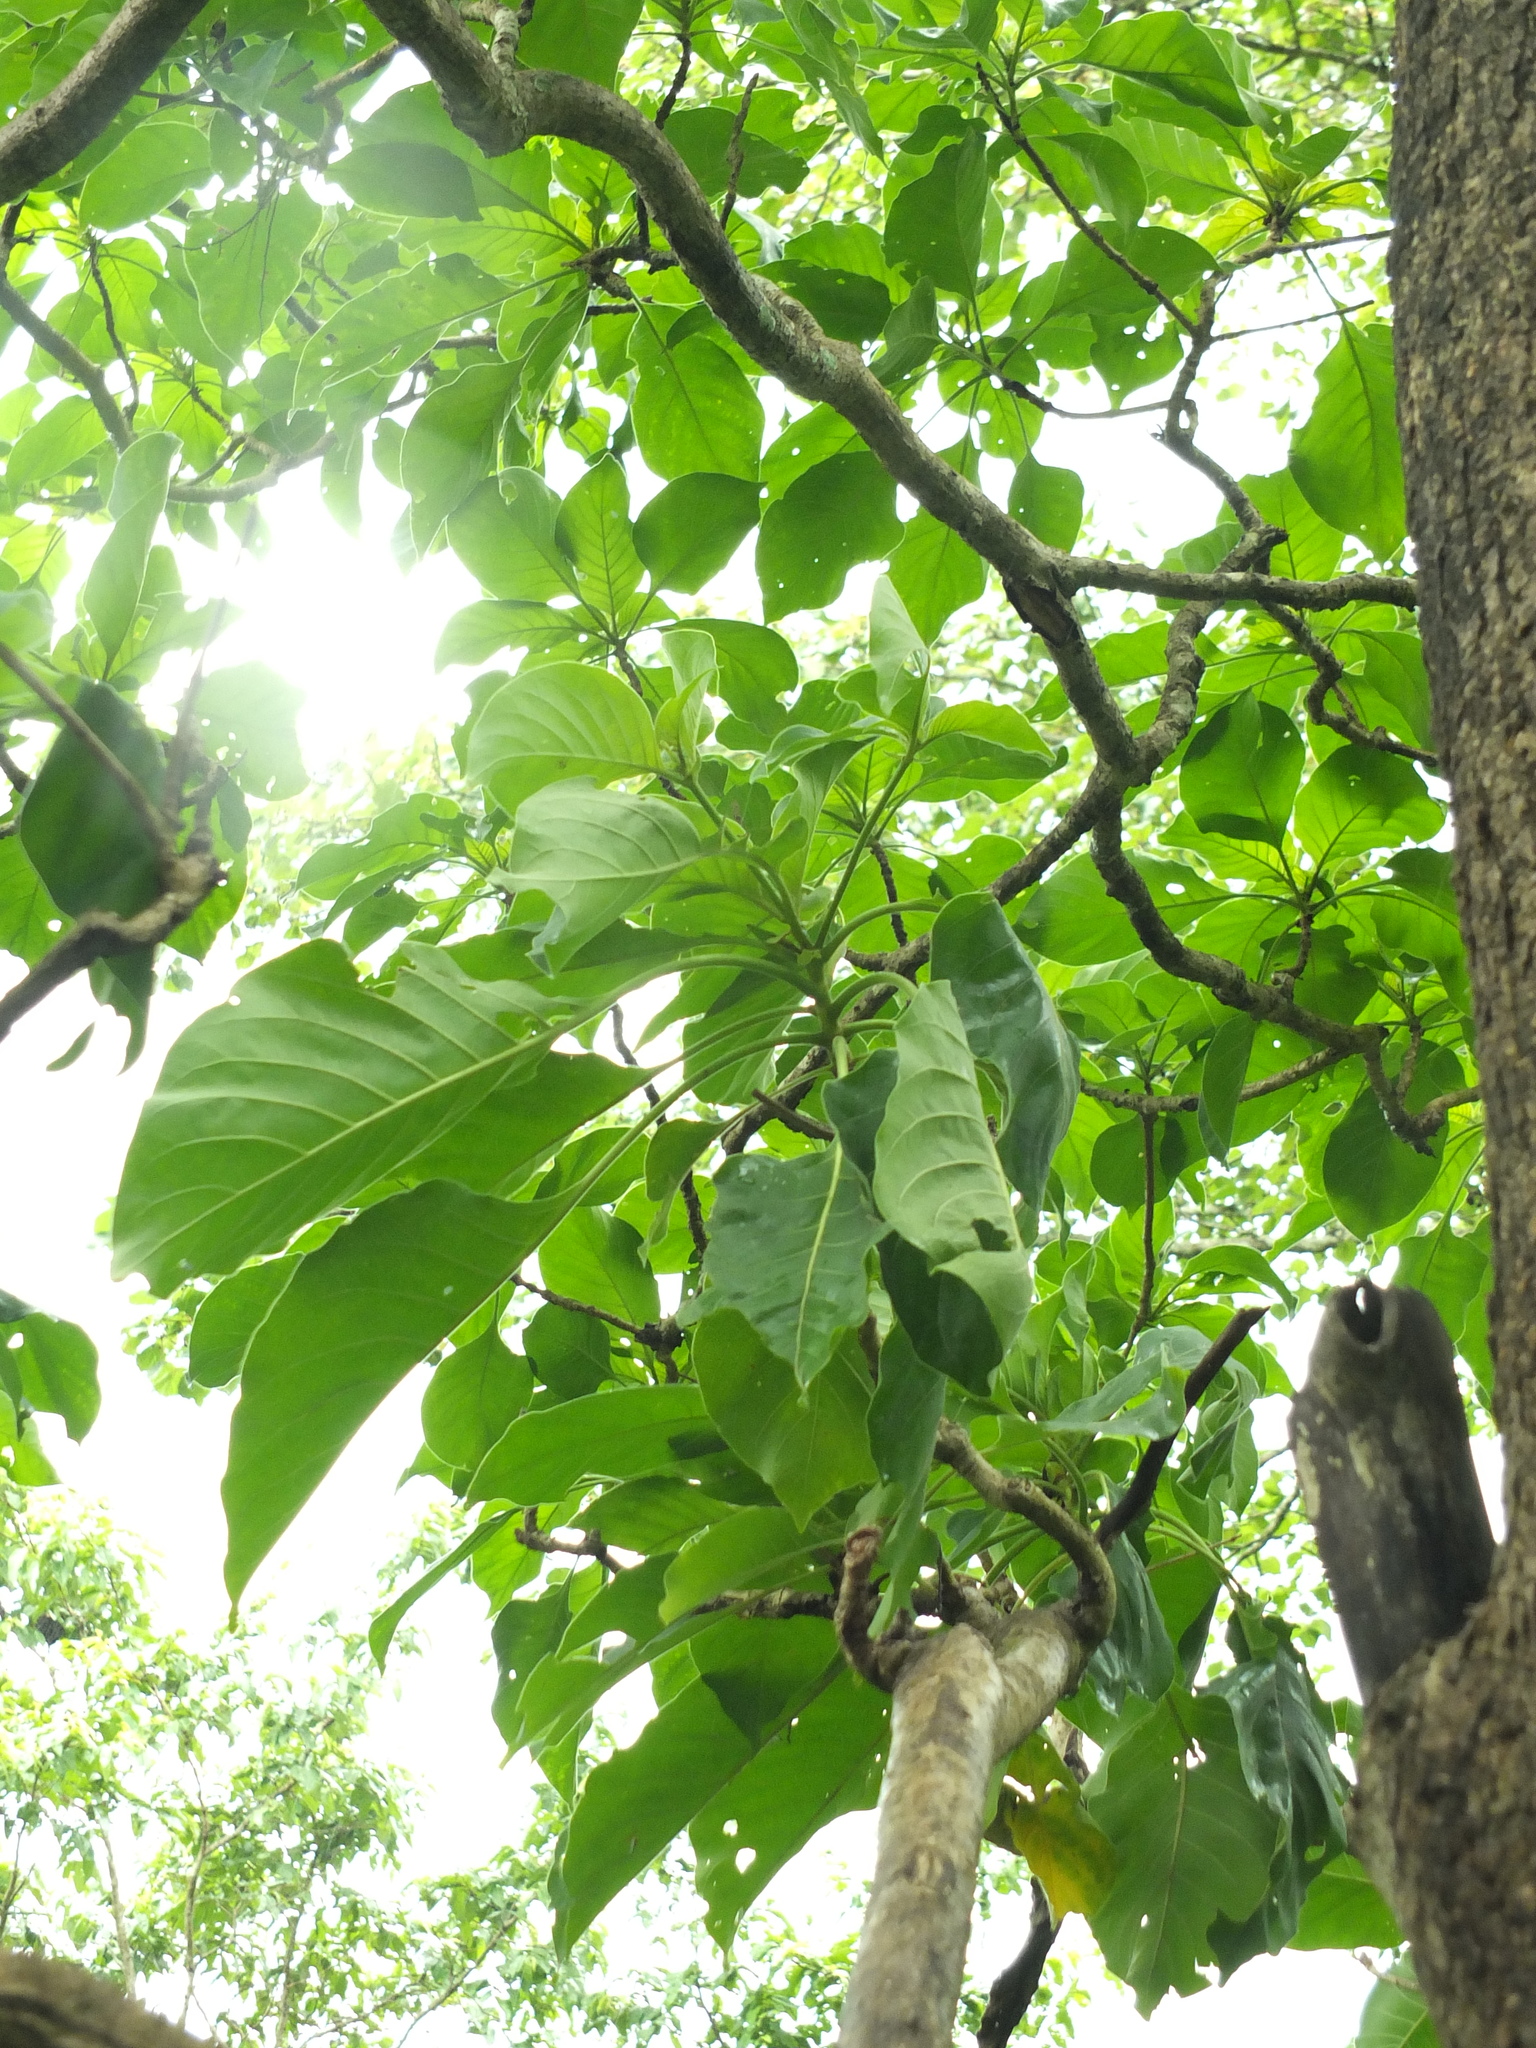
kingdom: Plantae
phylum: Tracheophyta
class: Magnoliopsida
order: Gentianales
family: Rubiaceae
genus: Hymenodictyon
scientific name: Hymenodictyon orixense
